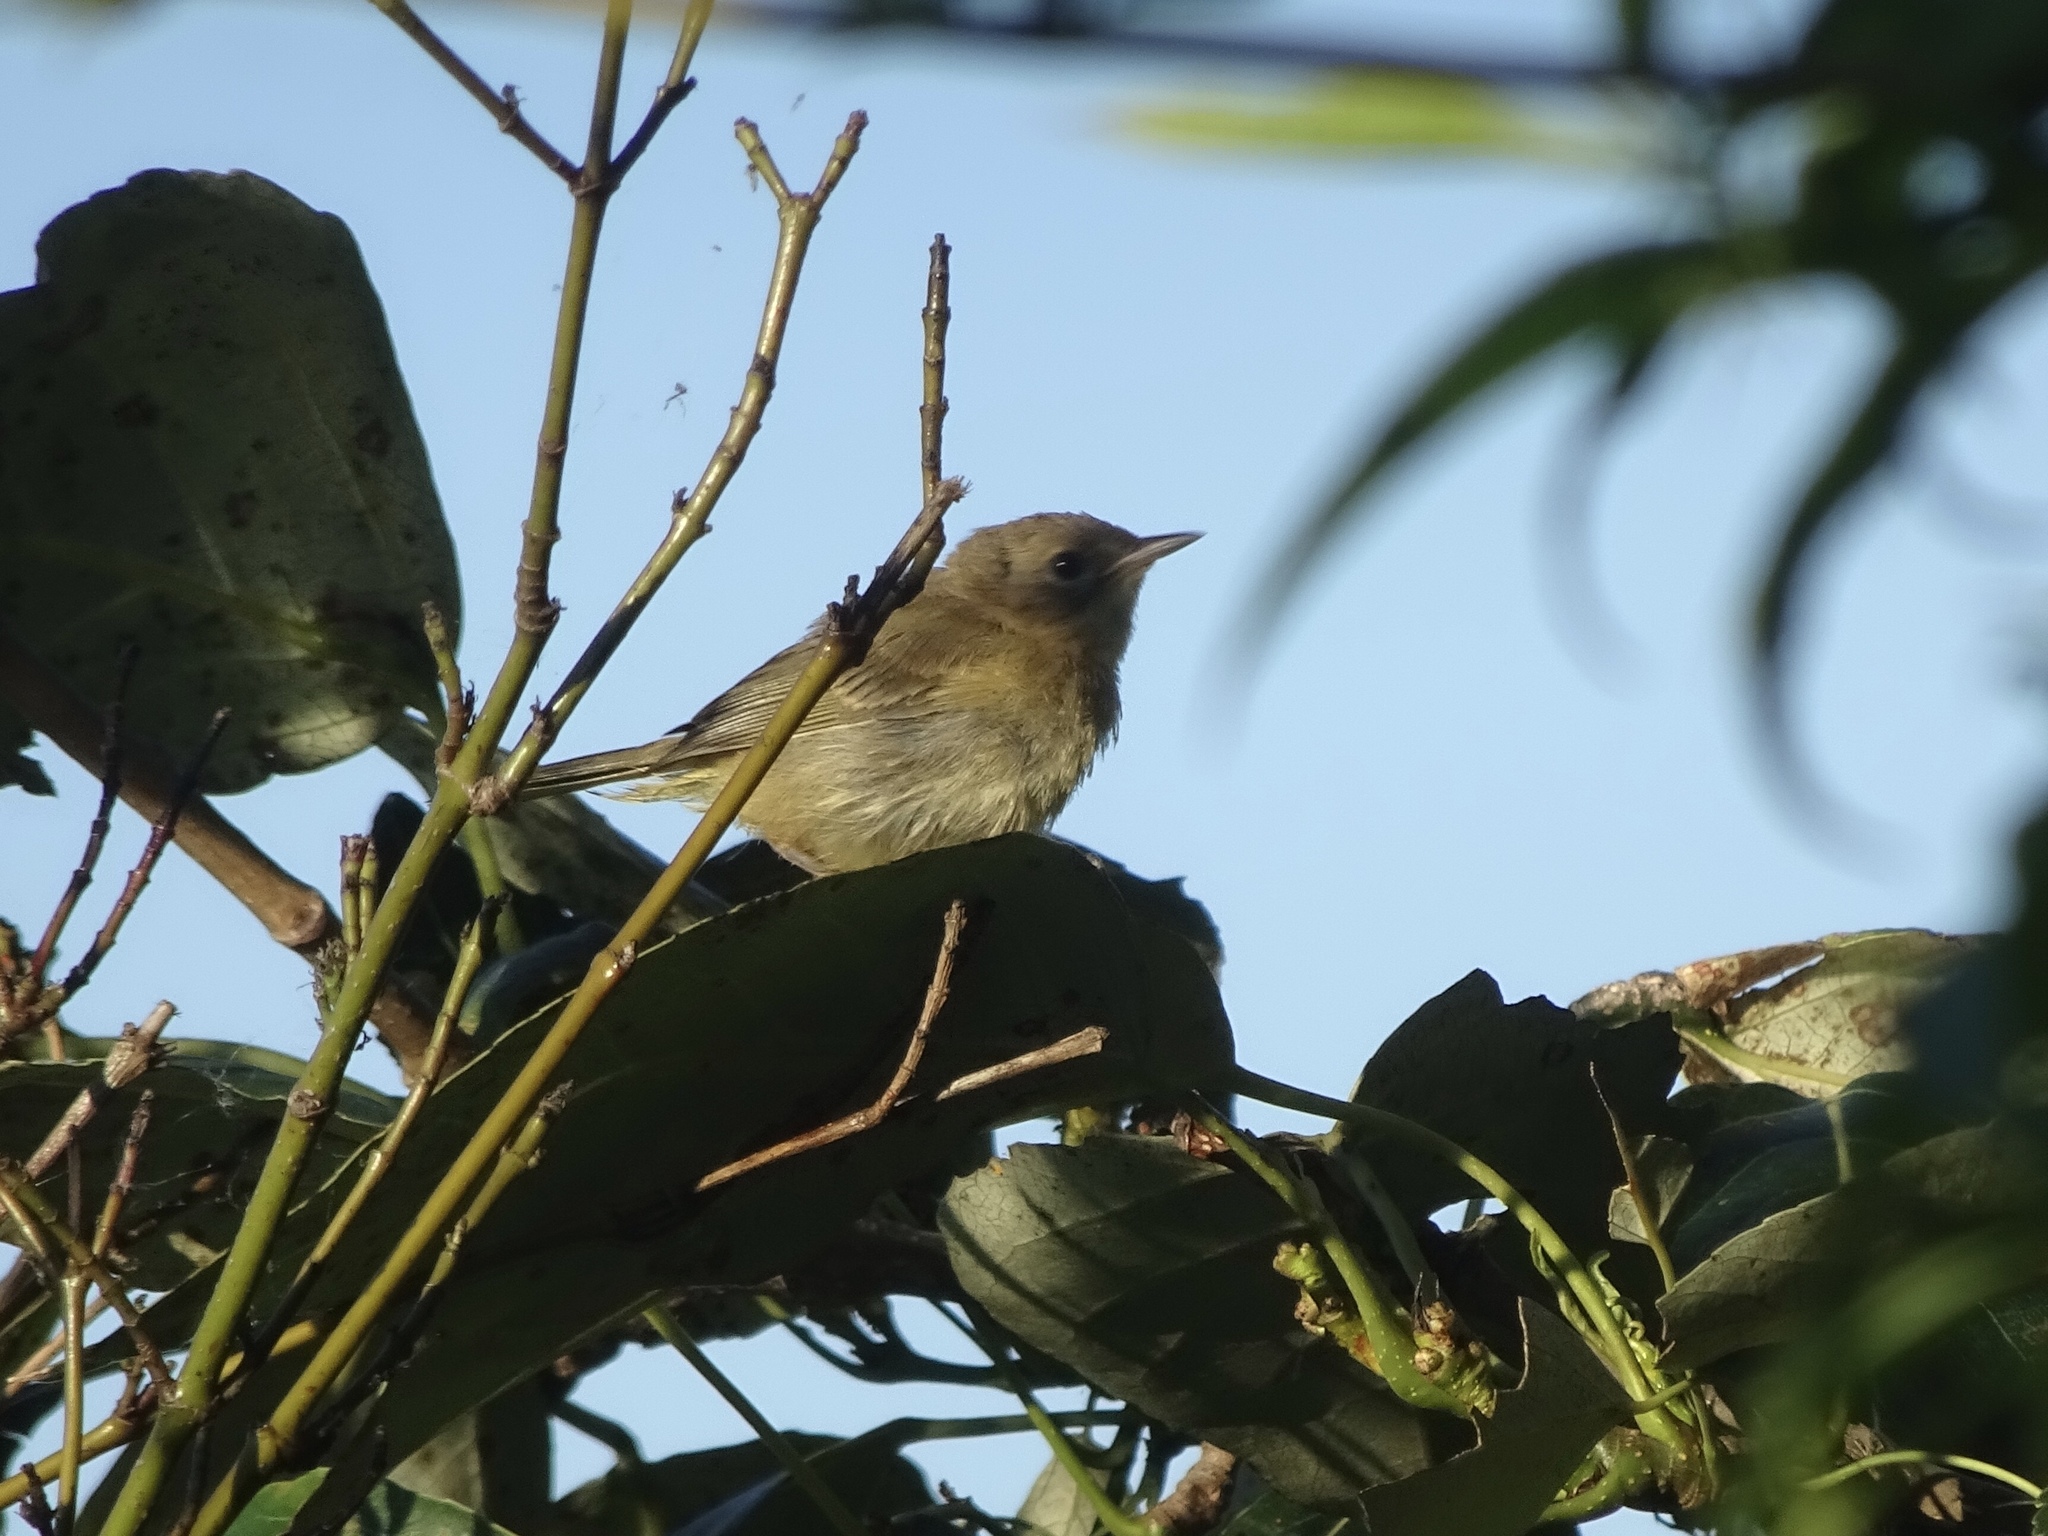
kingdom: Animalia
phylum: Chordata
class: Aves
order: Passeriformes
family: Parulidae
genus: Geothlypis
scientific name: Geothlypis trichas
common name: Common yellowthroat
